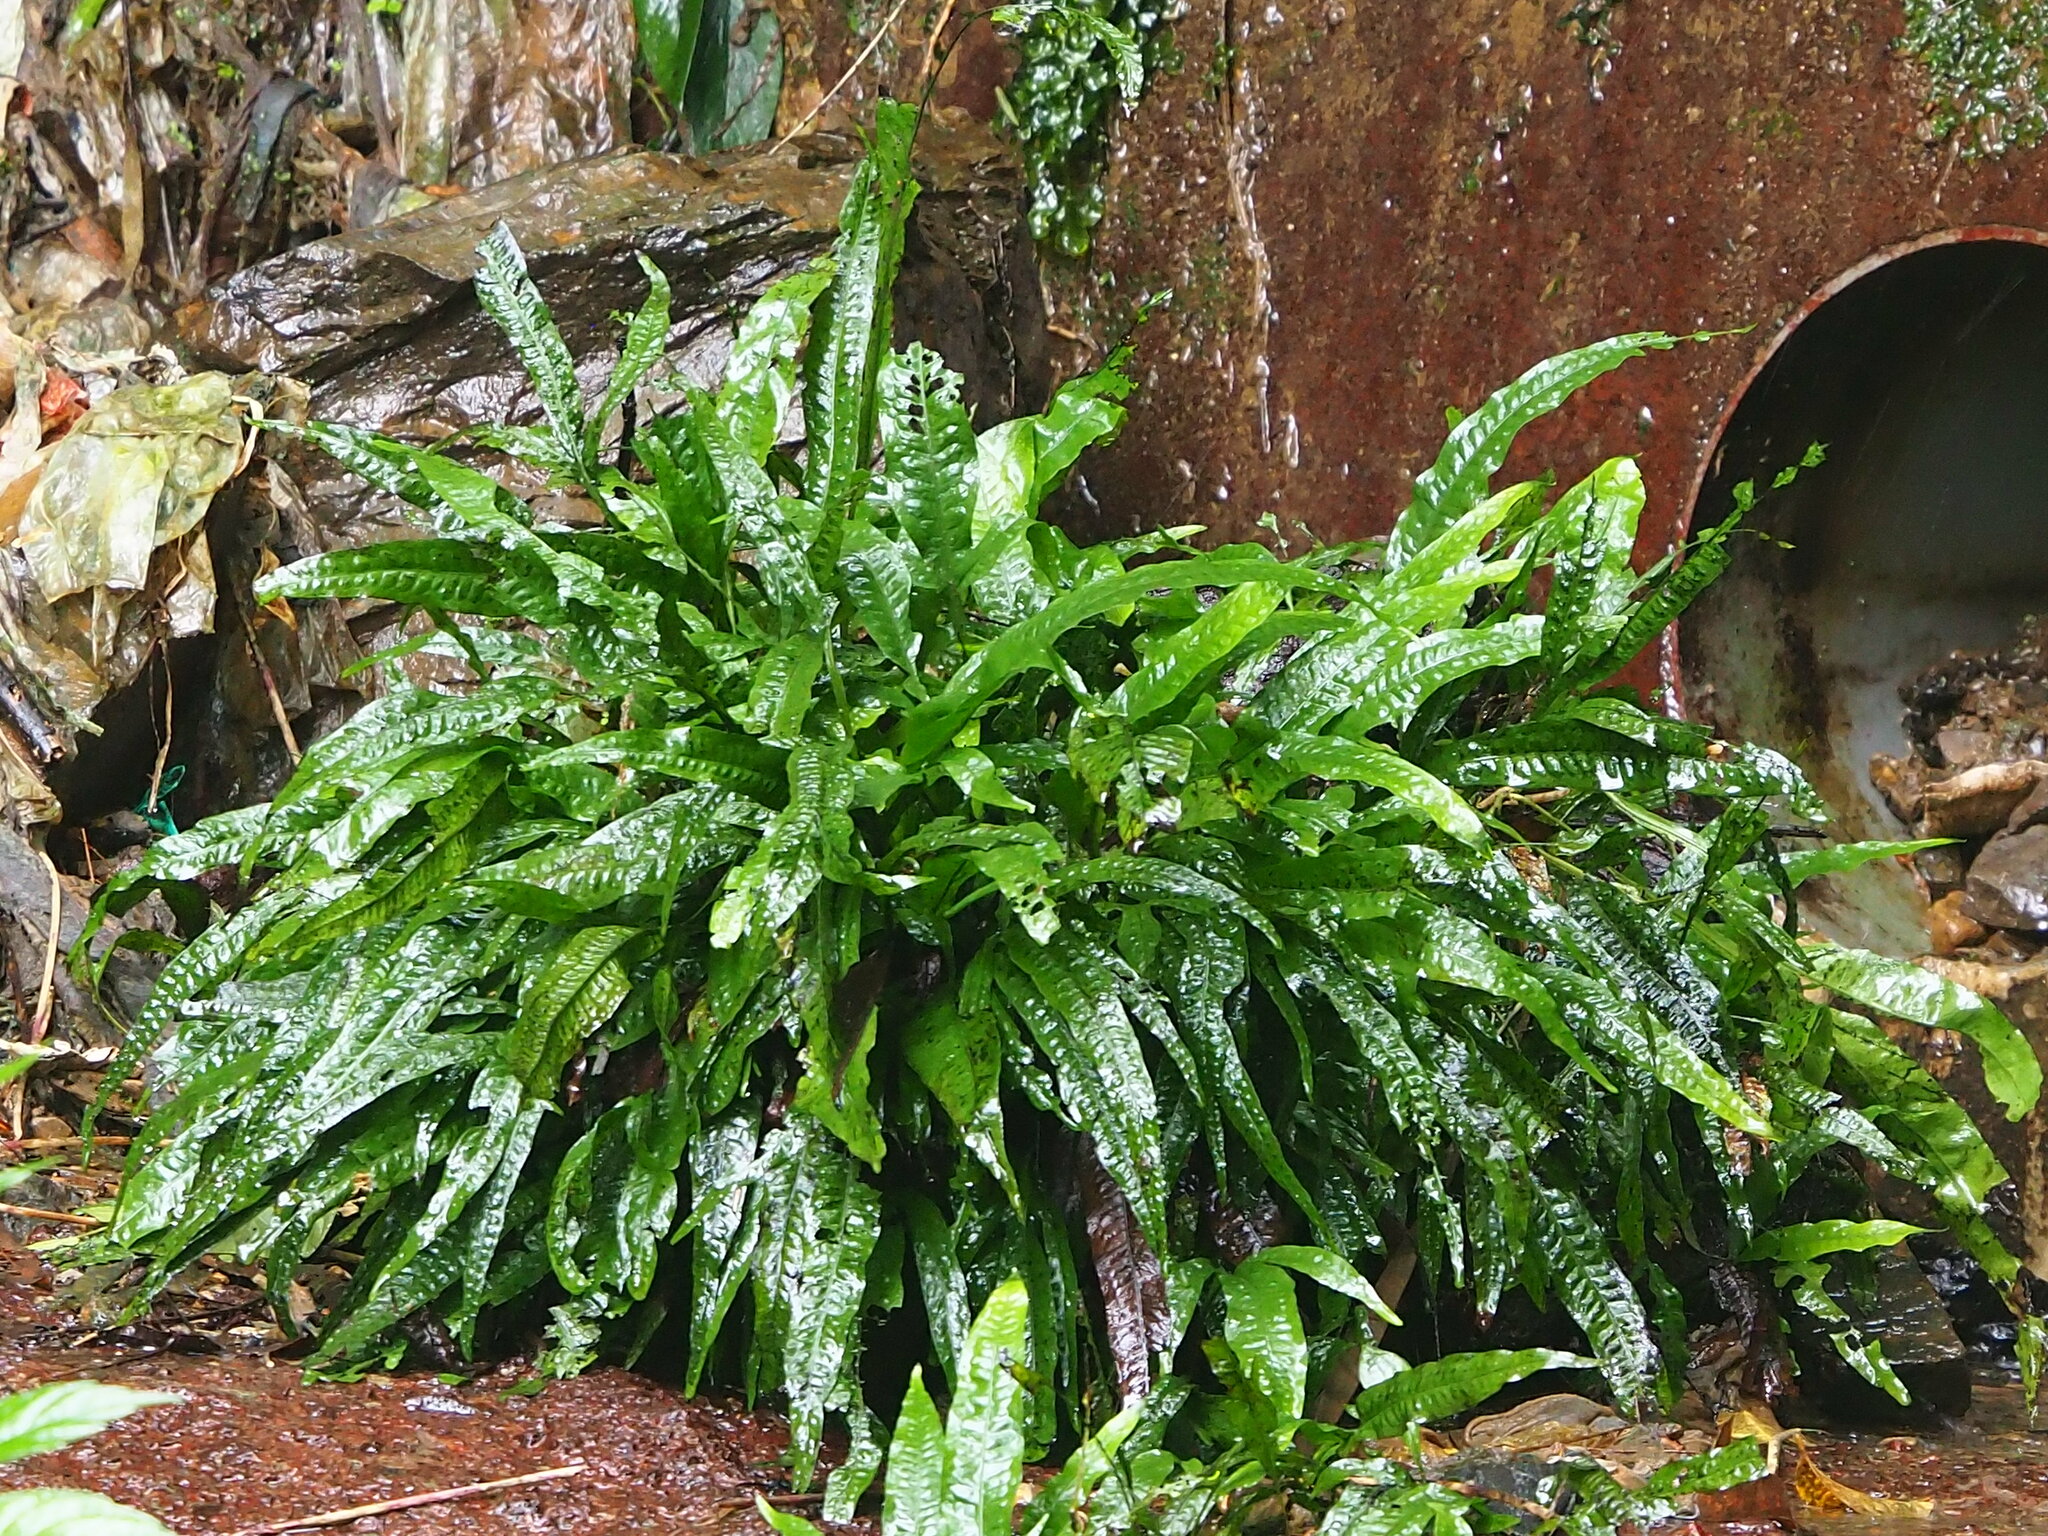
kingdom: Plantae
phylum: Tracheophyta
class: Polypodiopsida
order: Polypodiales
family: Polypodiaceae
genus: Leptochilus
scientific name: Leptochilus pteropus
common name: Java fern
